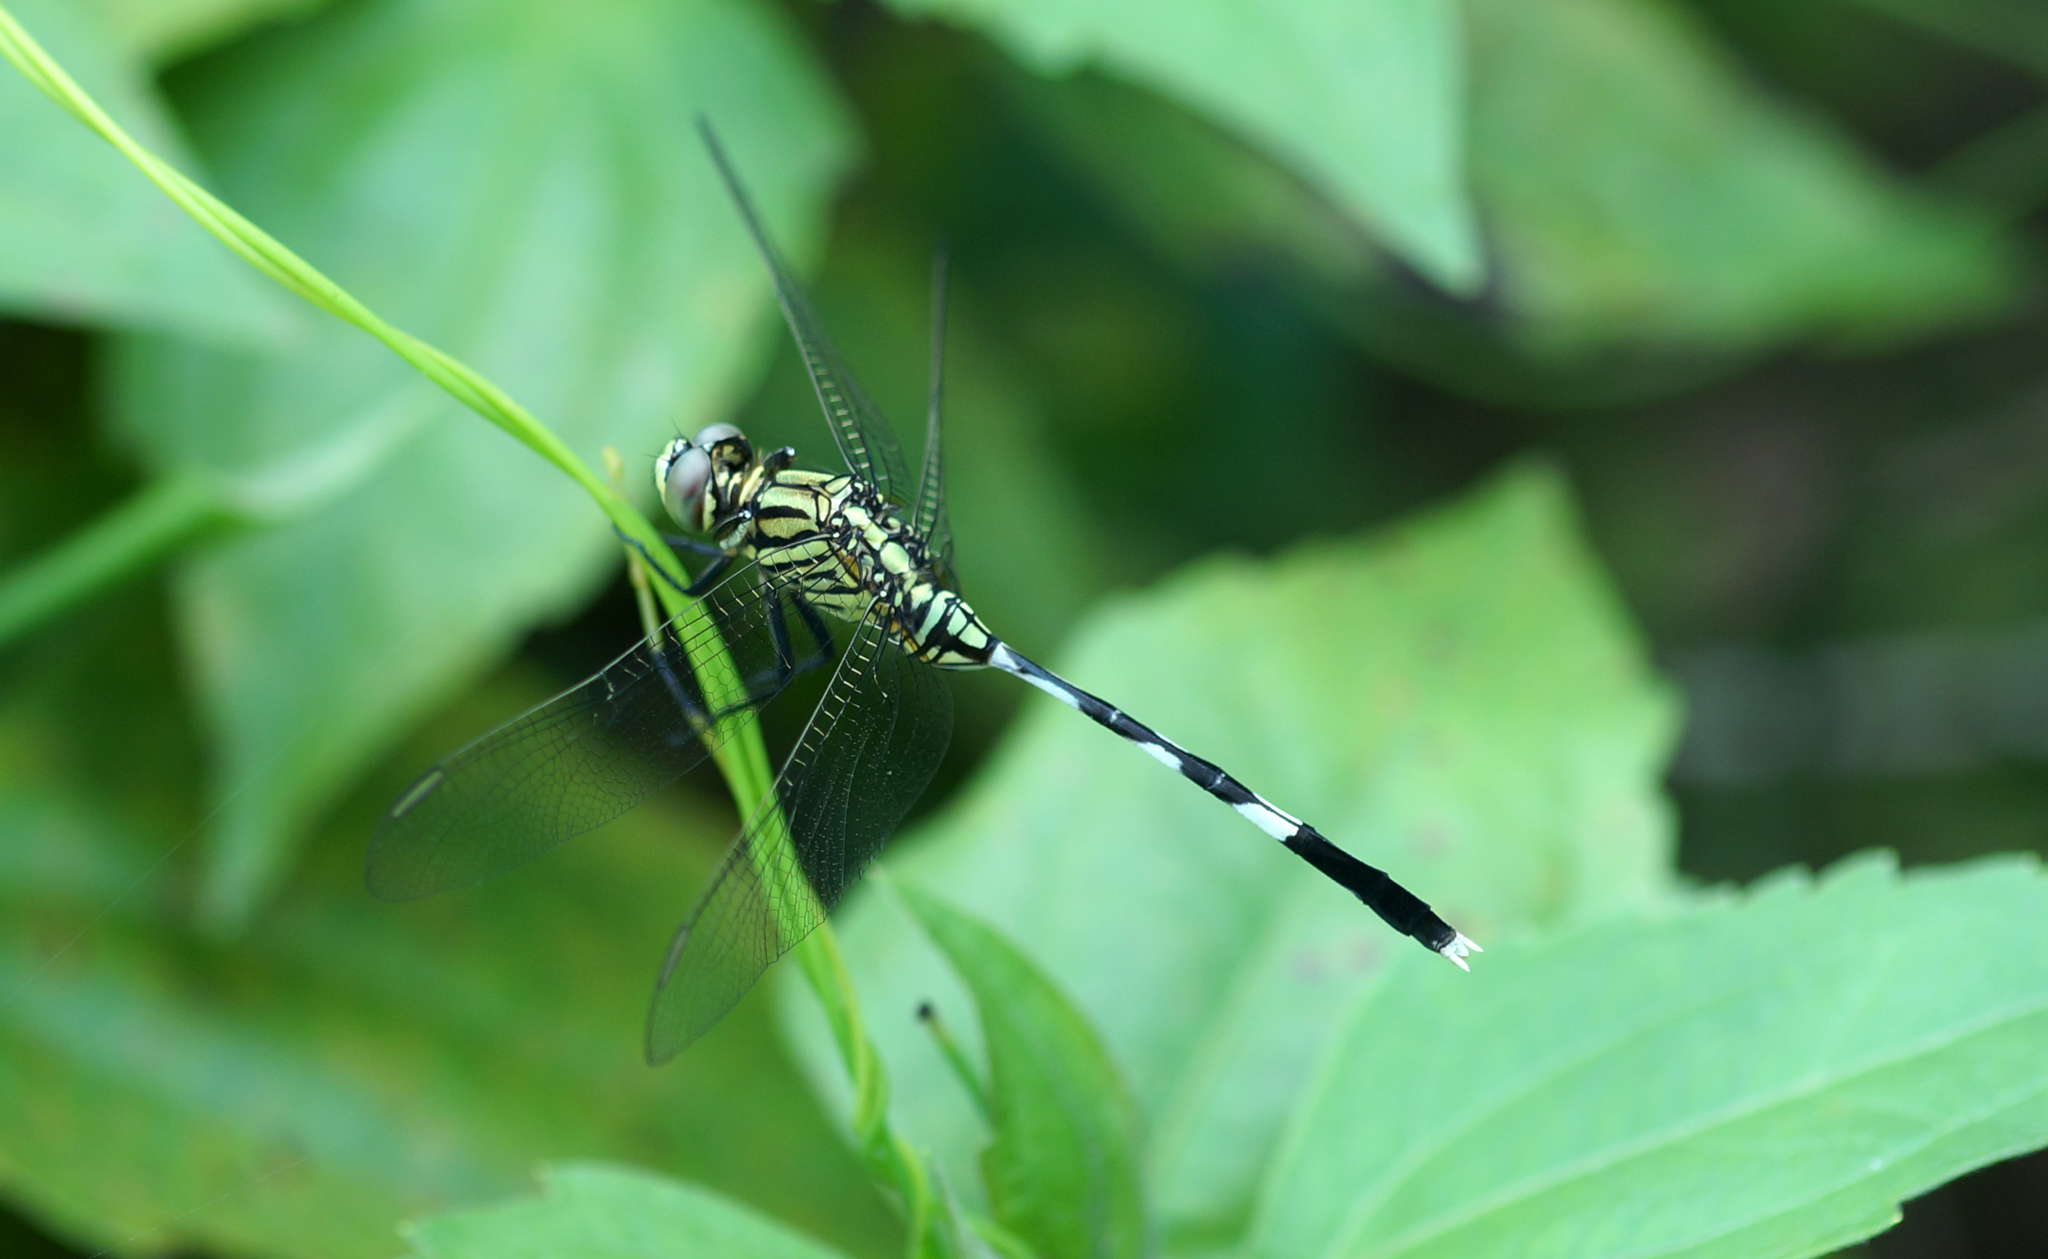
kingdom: Animalia
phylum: Arthropoda
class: Insecta
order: Odonata
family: Libellulidae
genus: Orthetrum
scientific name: Orthetrum sabina
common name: Slender skimmer
